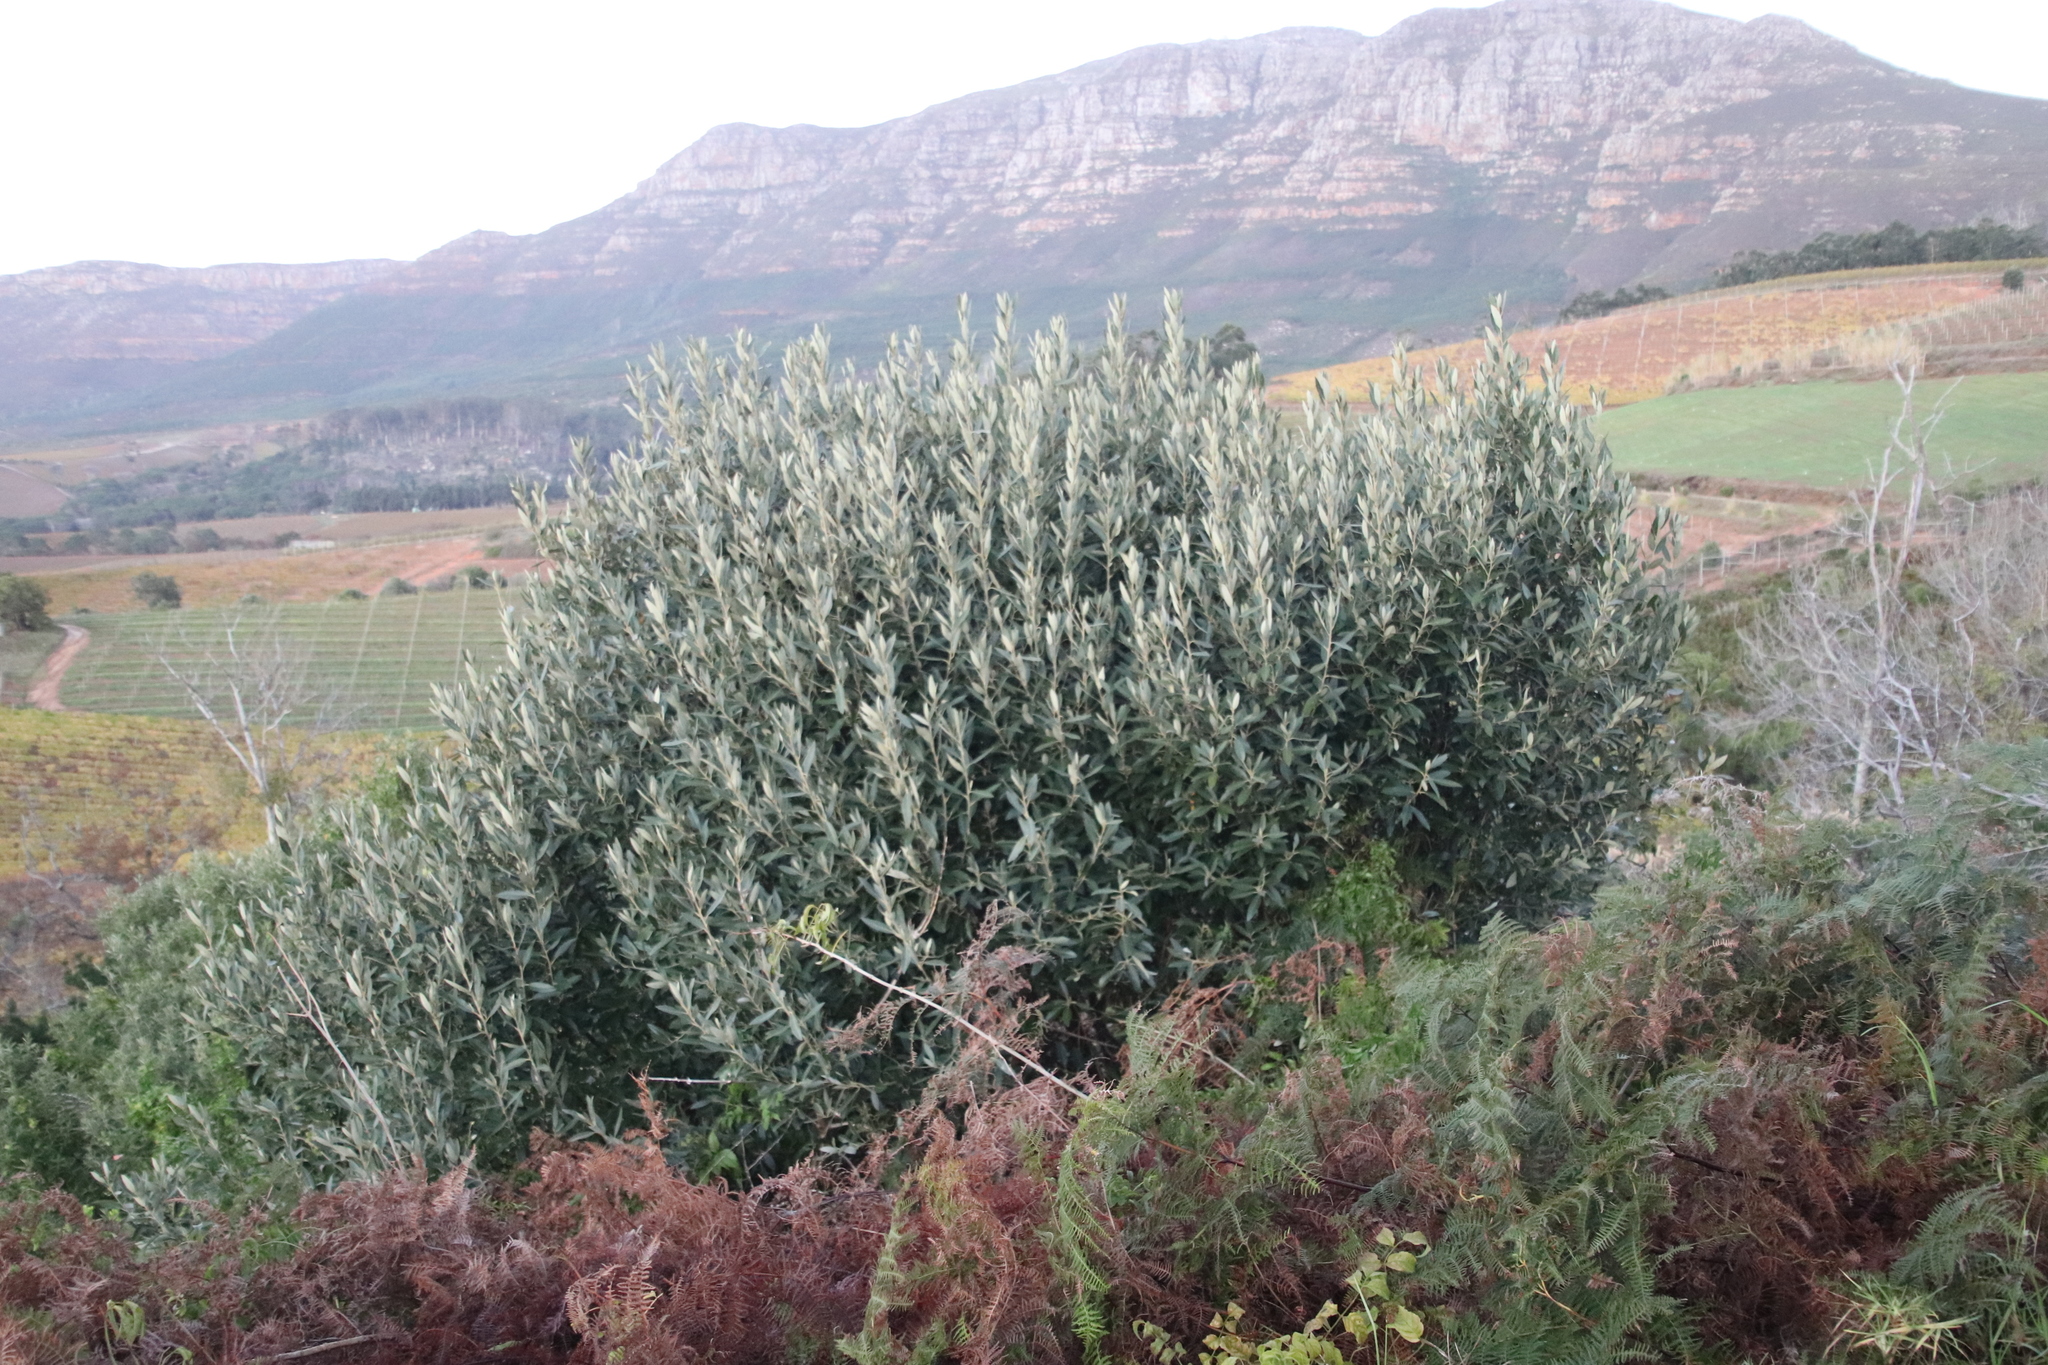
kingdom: Plantae
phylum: Tracheophyta
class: Magnoliopsida
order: Malpighiales
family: Achariaceae
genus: Kiggelaria
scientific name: Kiggelaria africana
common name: Wild peach
